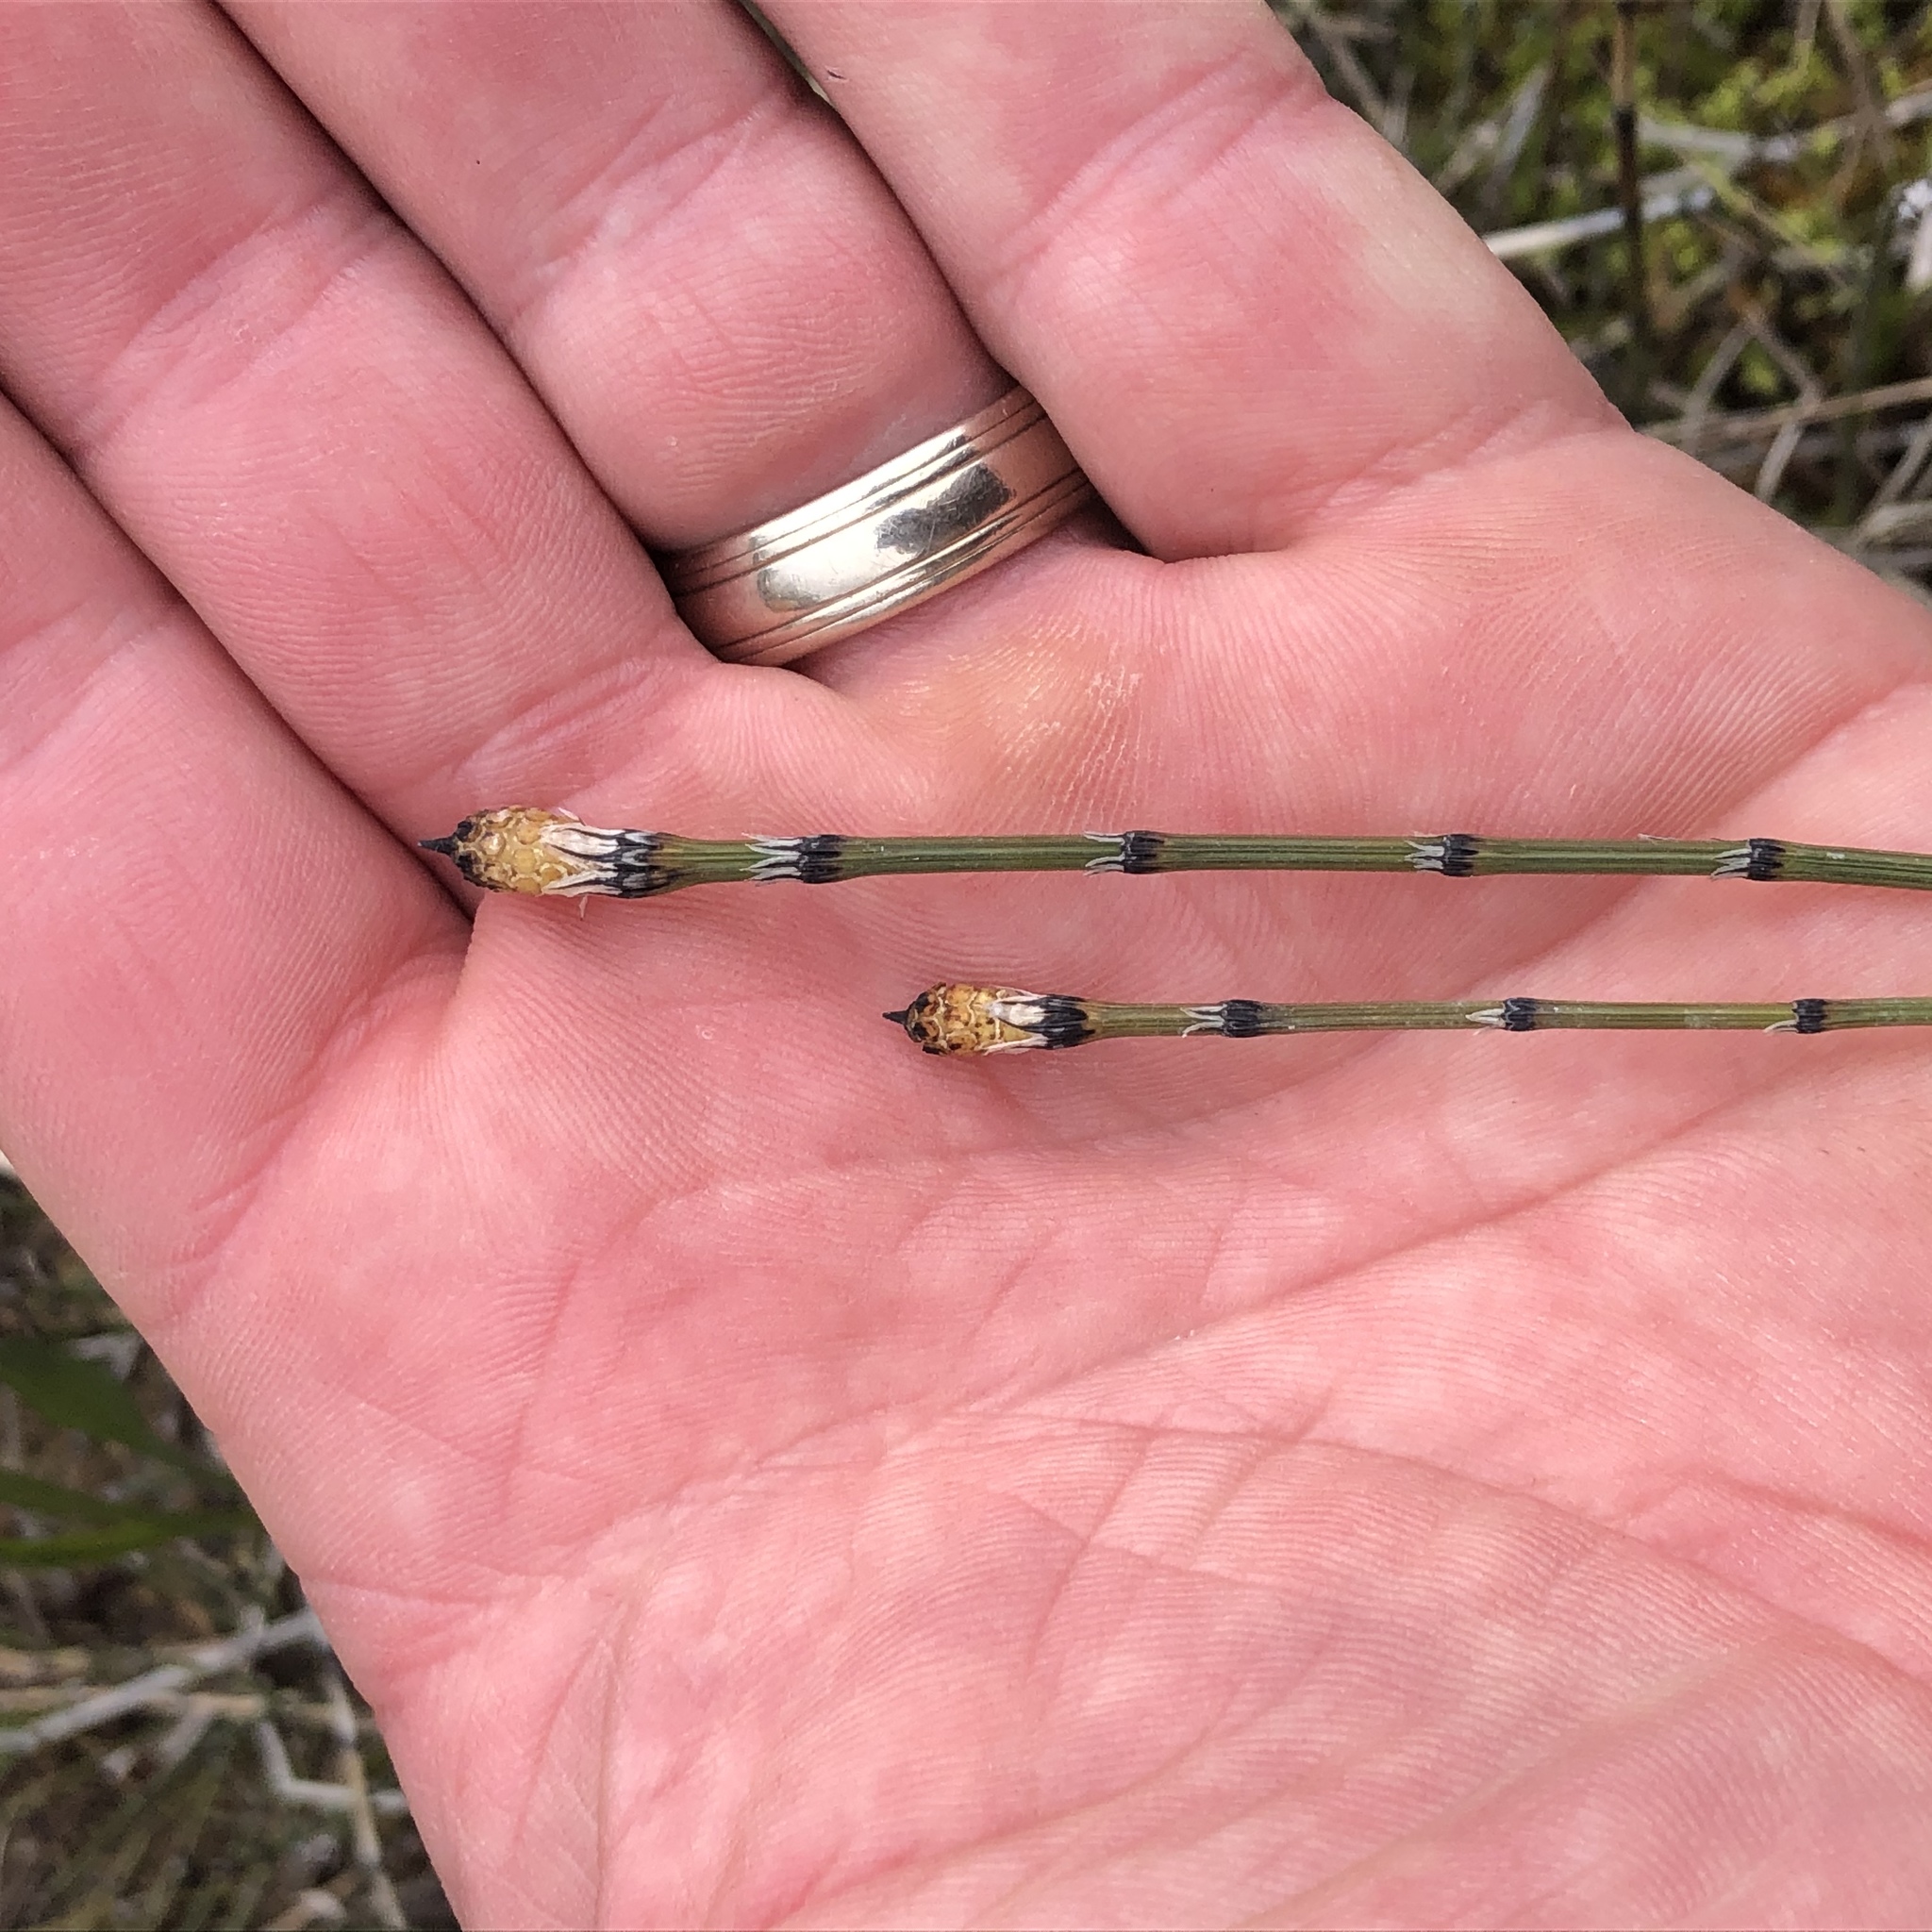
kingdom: Plantae
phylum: Tracheophyta
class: Polypodiopsida
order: Equisetales
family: Equisetaceae
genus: Equisetum
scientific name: Equisetum variegatum
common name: Variegated horsetail
